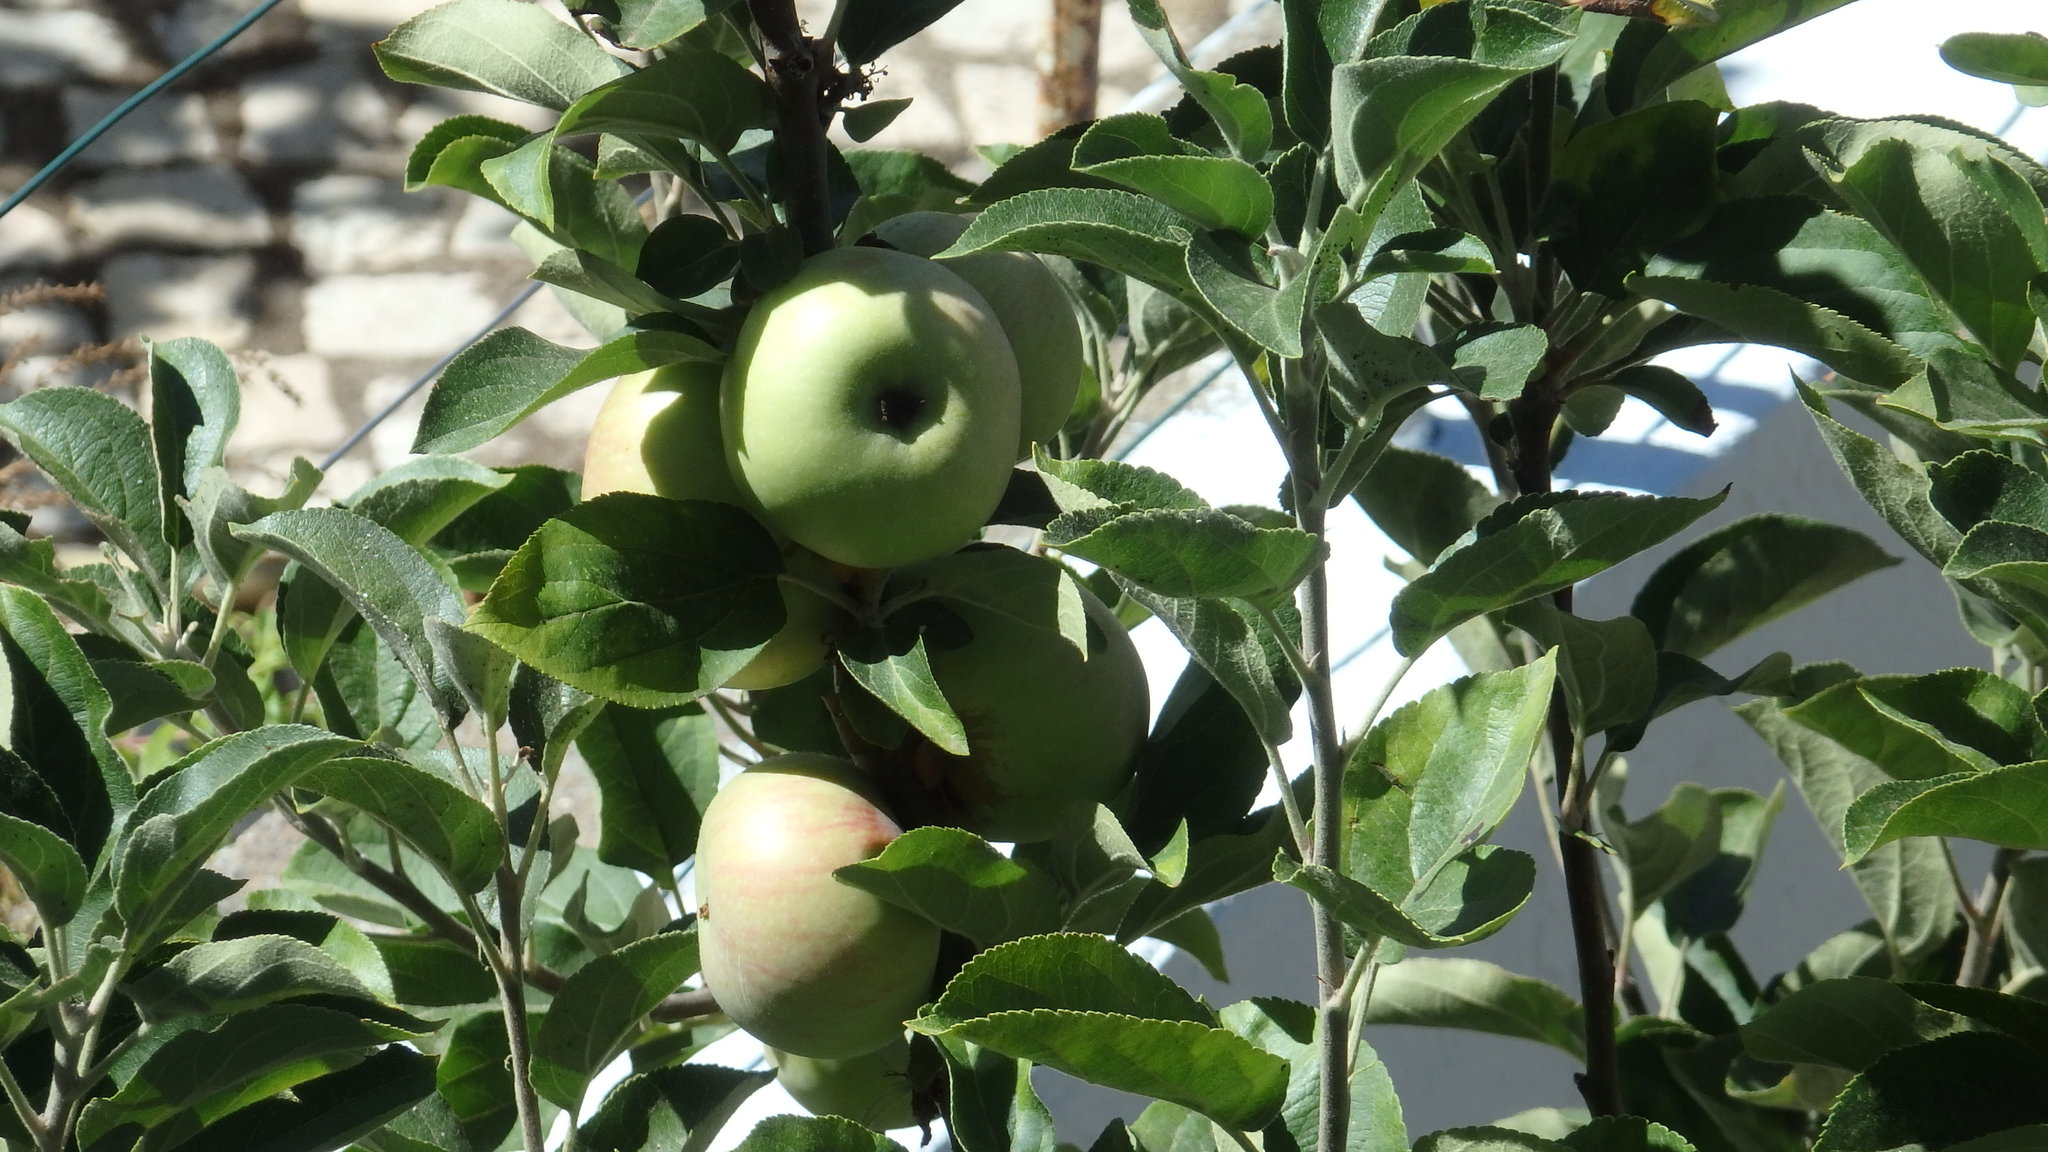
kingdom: Plantae
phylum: Tracheophyta
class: Magnoliopsida
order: Rosales
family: Rosaceae
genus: Malus
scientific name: Malus domestica
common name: Apple
